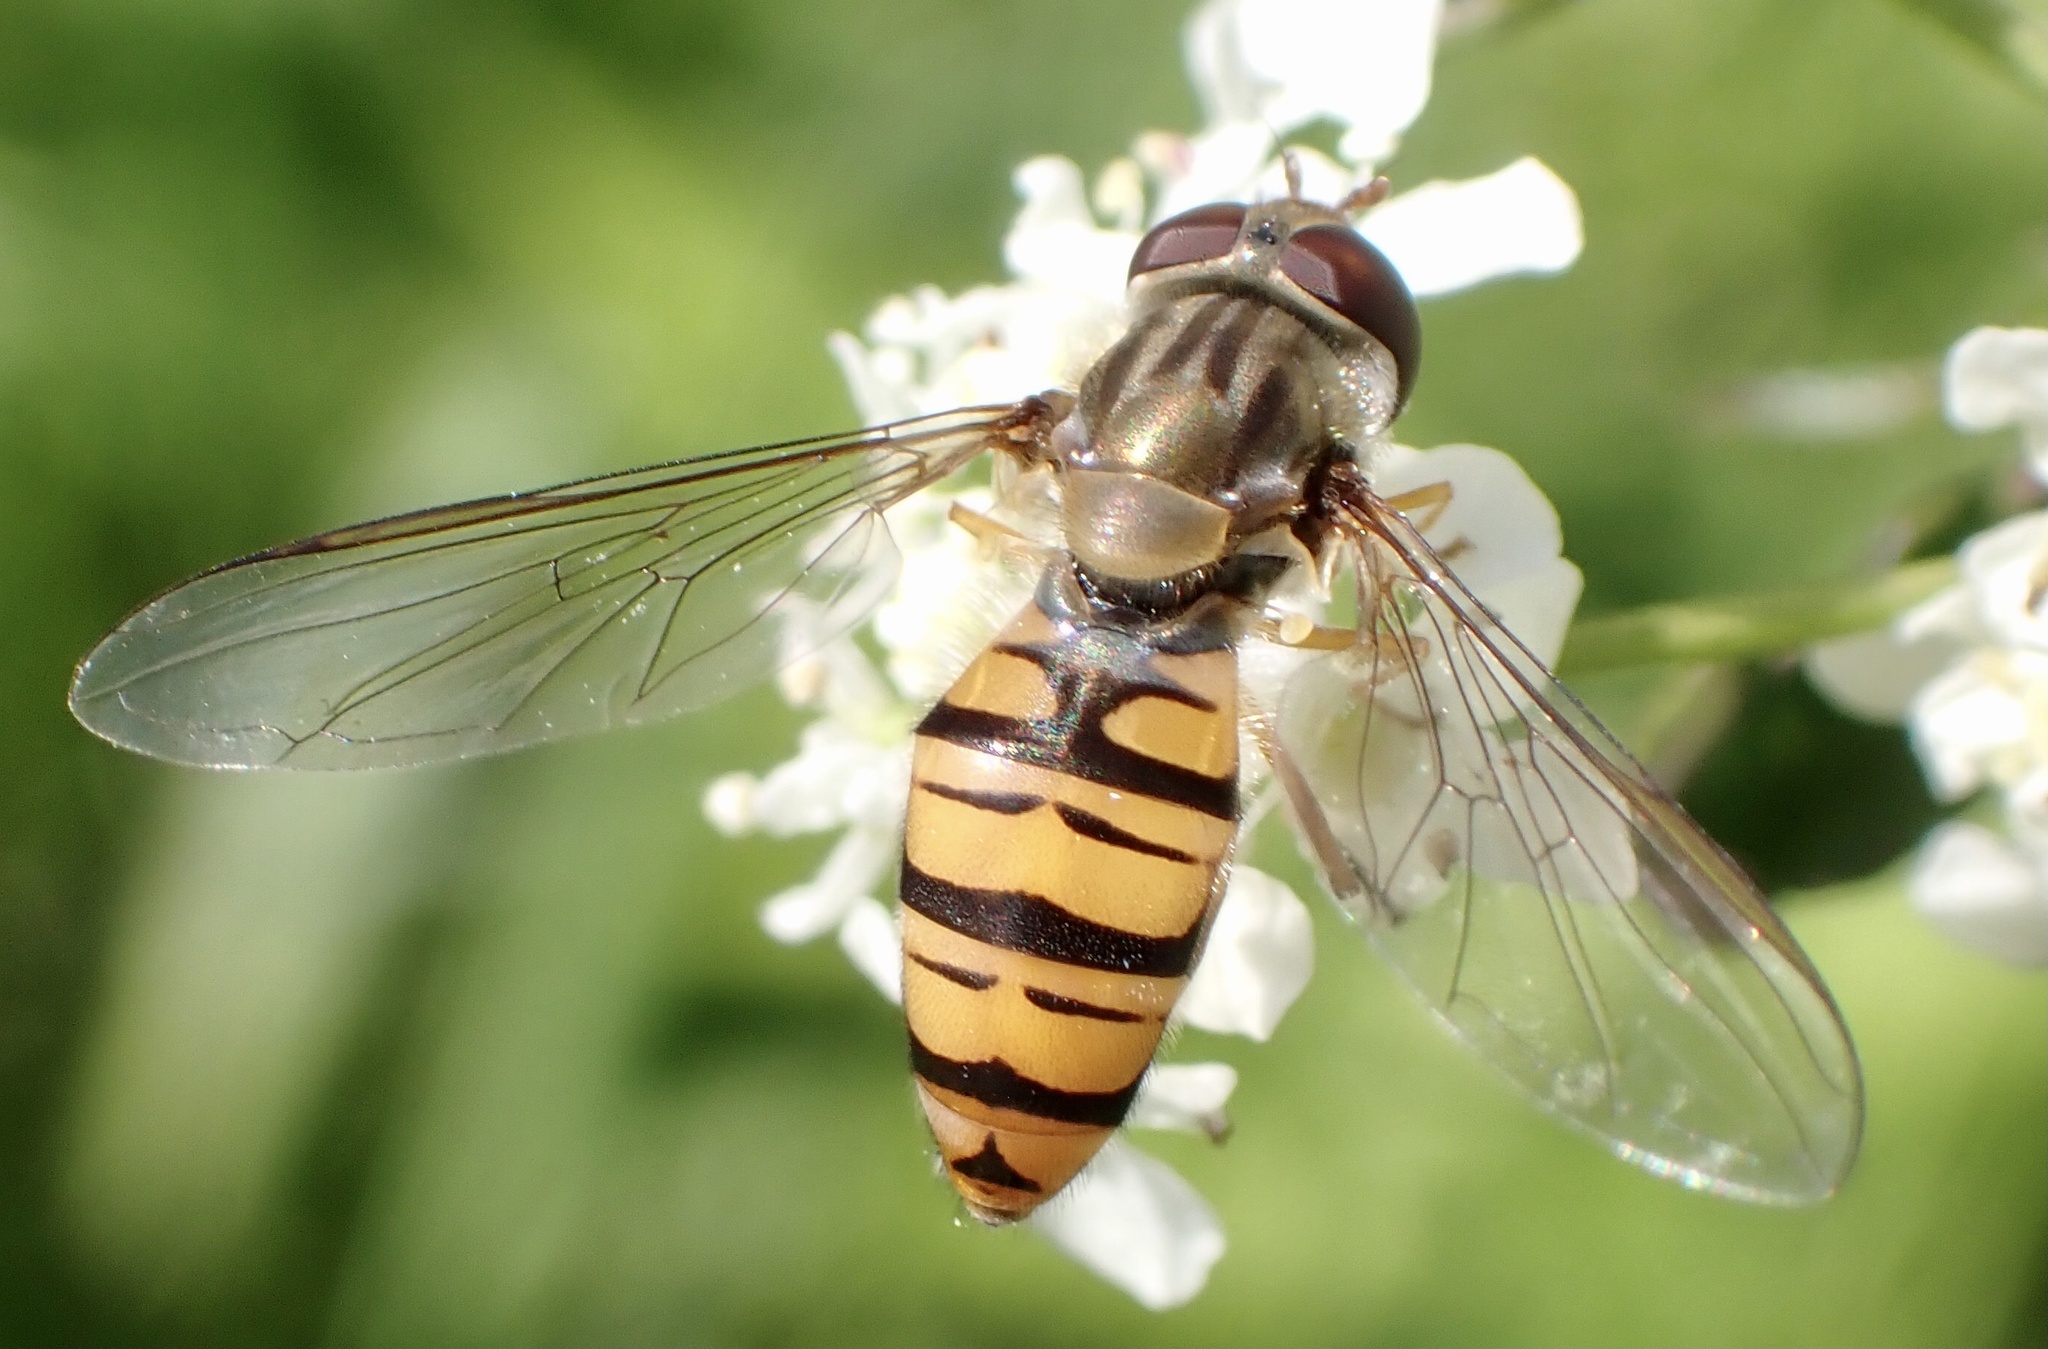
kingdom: Animalia
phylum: Arthropoda
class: Insecta
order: Diptera
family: Syrphidae
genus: Episyrphus
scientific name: Episyrphus balteatus
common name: Marmalade hoverfly
